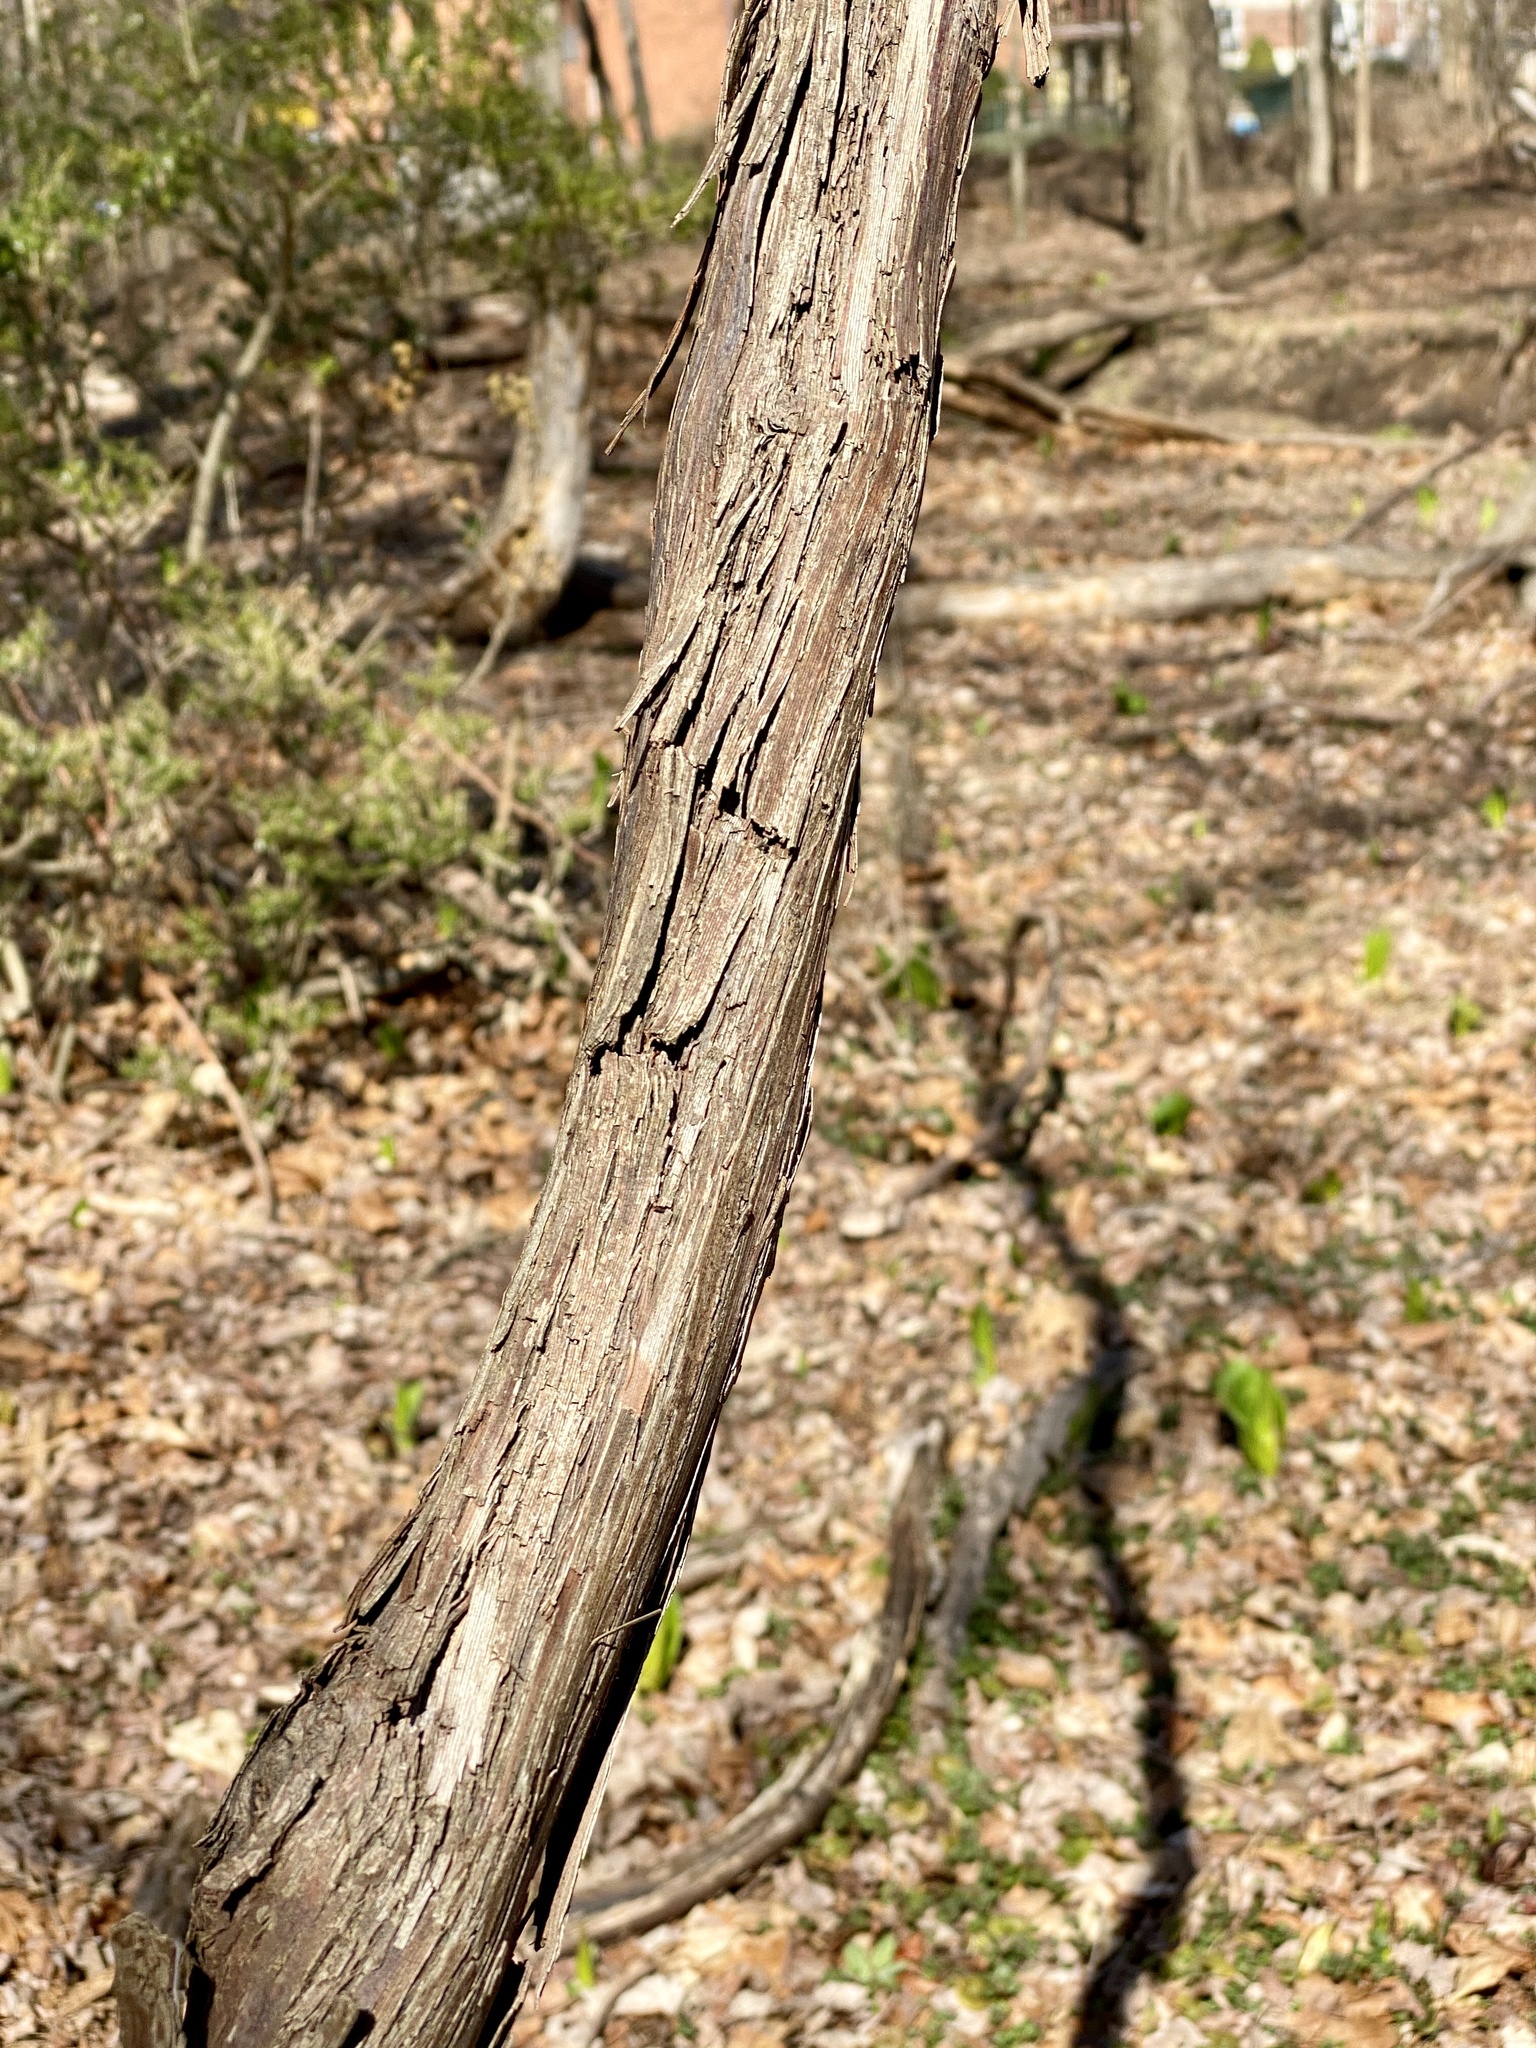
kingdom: Plantae
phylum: Tracheophyta
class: Magnoliopsida
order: Vitales
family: Vitaceae
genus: Vitis
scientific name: Vitis
